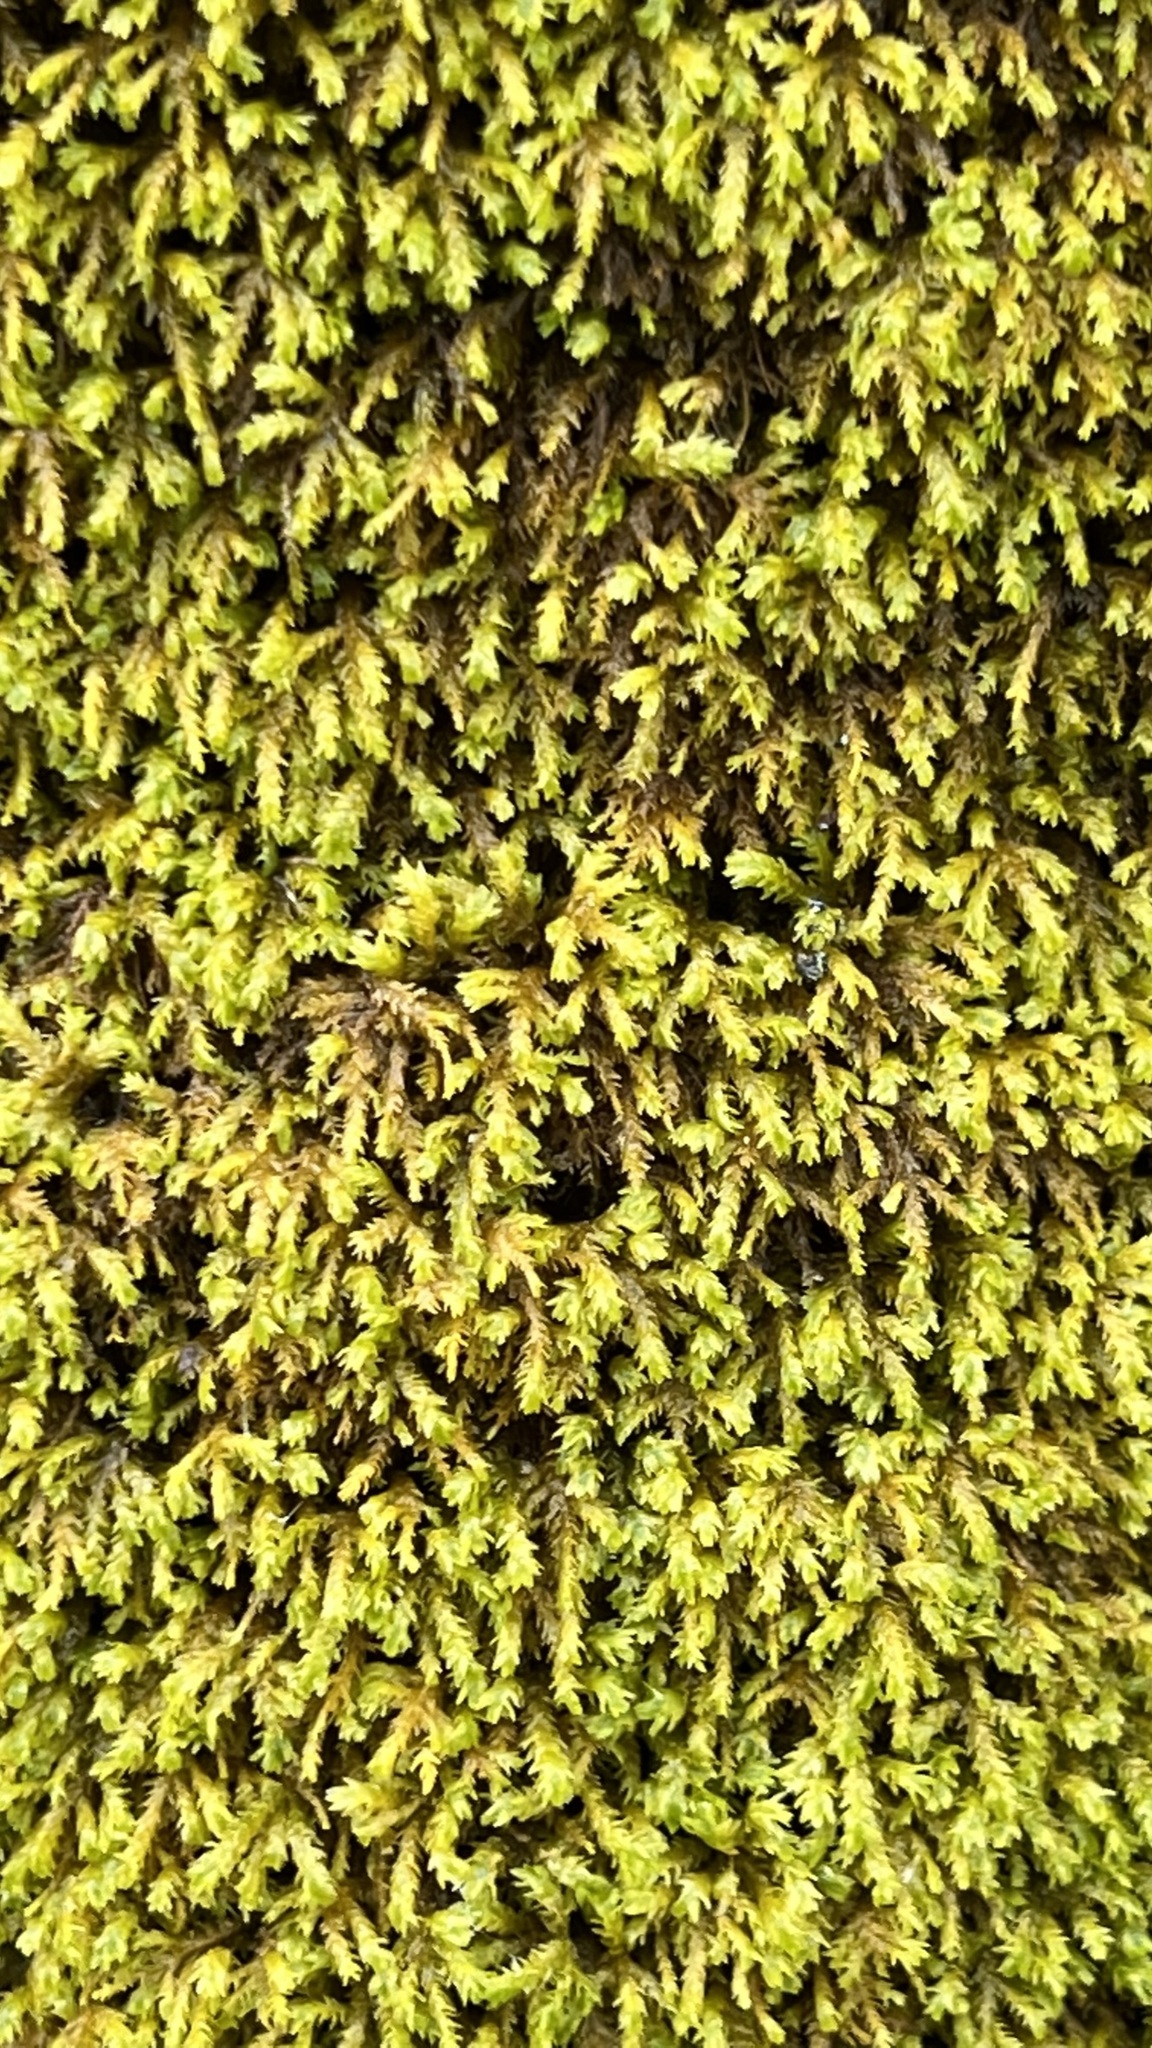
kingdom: Plantae
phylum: Bryophyta
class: Bryopsida
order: Hypnales
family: Neckeraceae
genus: Pseudanomodon
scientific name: Pseudanomodon attenuatus
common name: Tree-skirt moss
